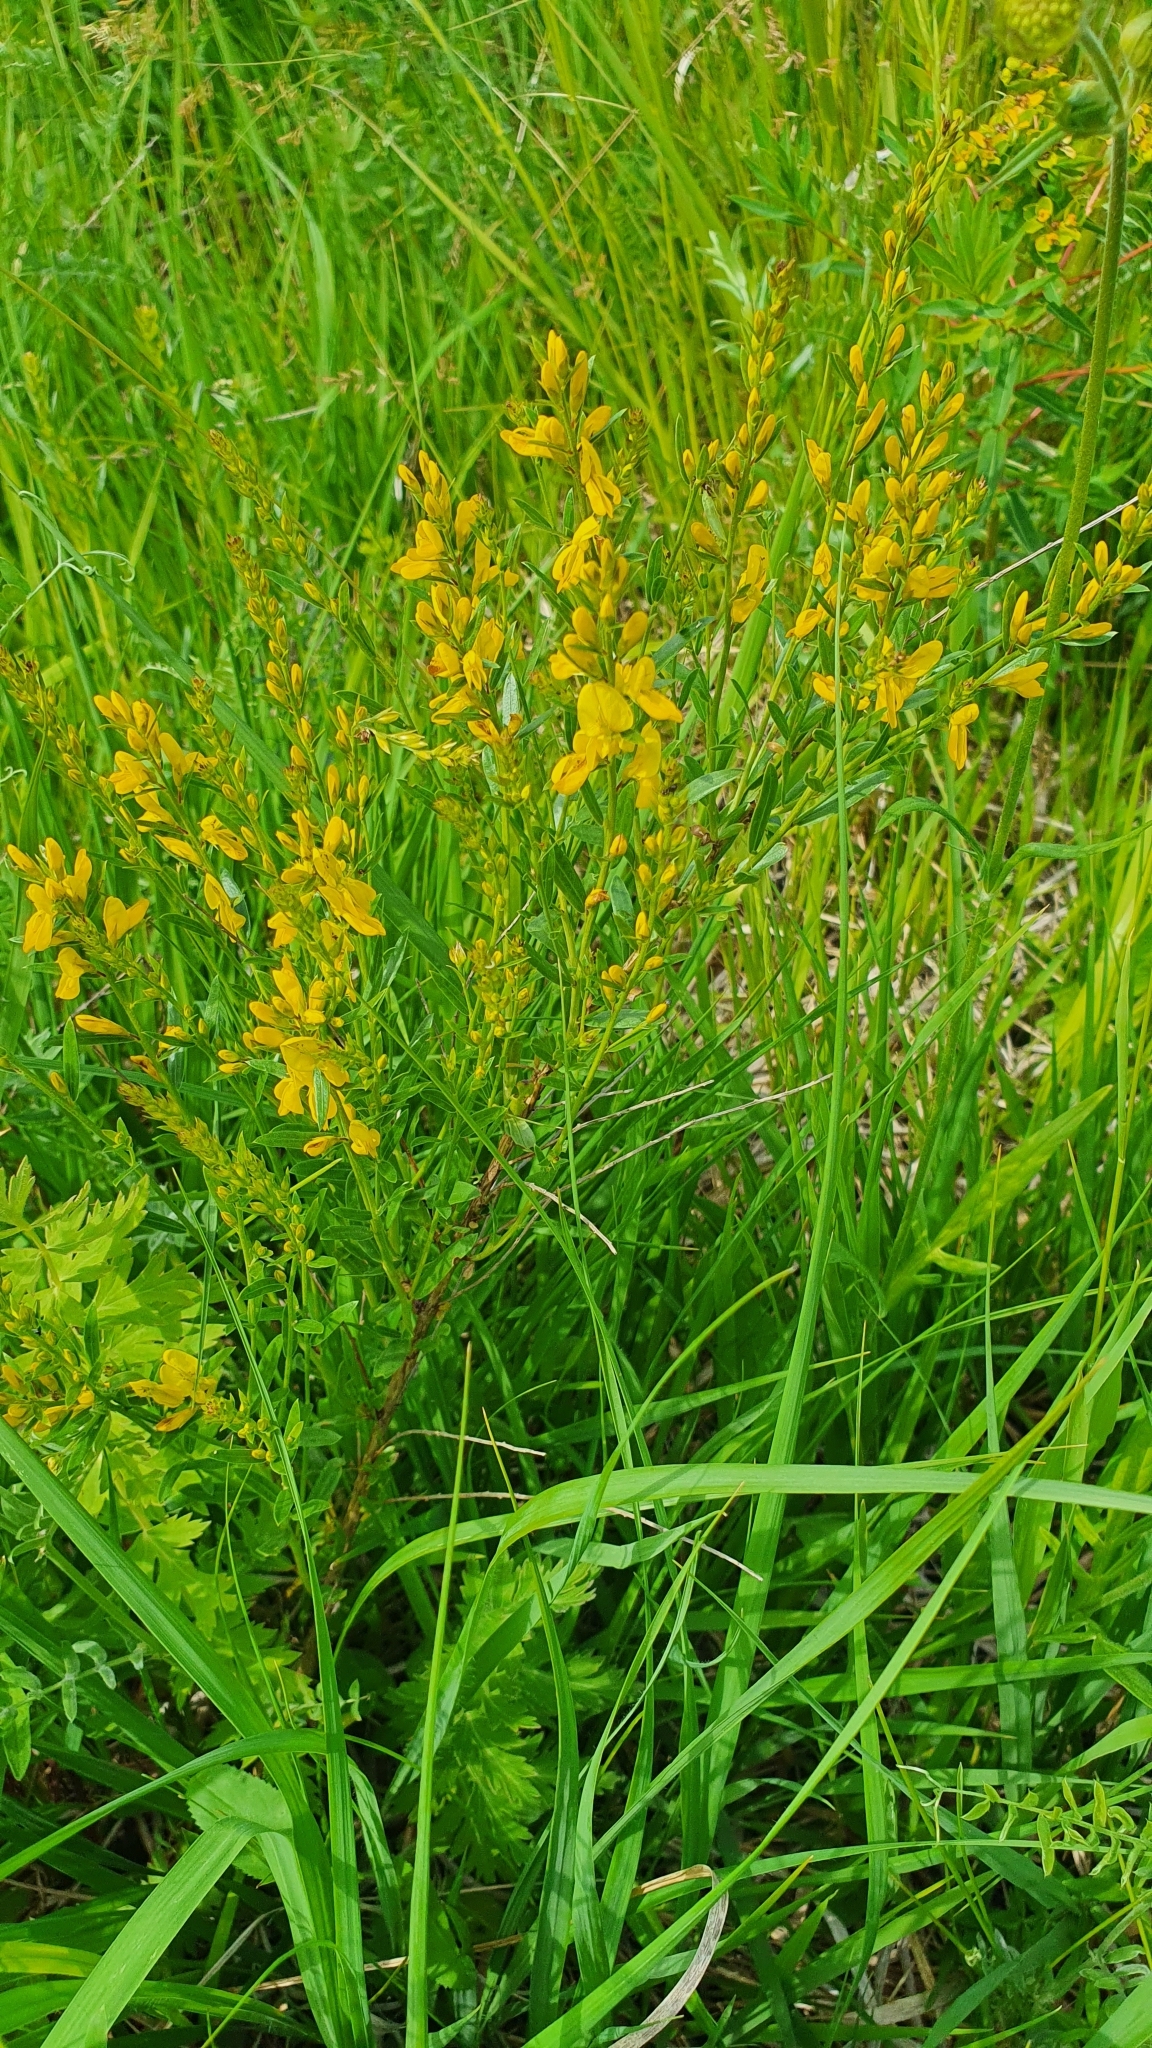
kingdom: Plantae
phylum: Tracheophyta
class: Magnoliopsida
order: Fabales
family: Fabaceae
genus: Genista
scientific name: Genista tinctoria
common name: Dyer's greenweed
